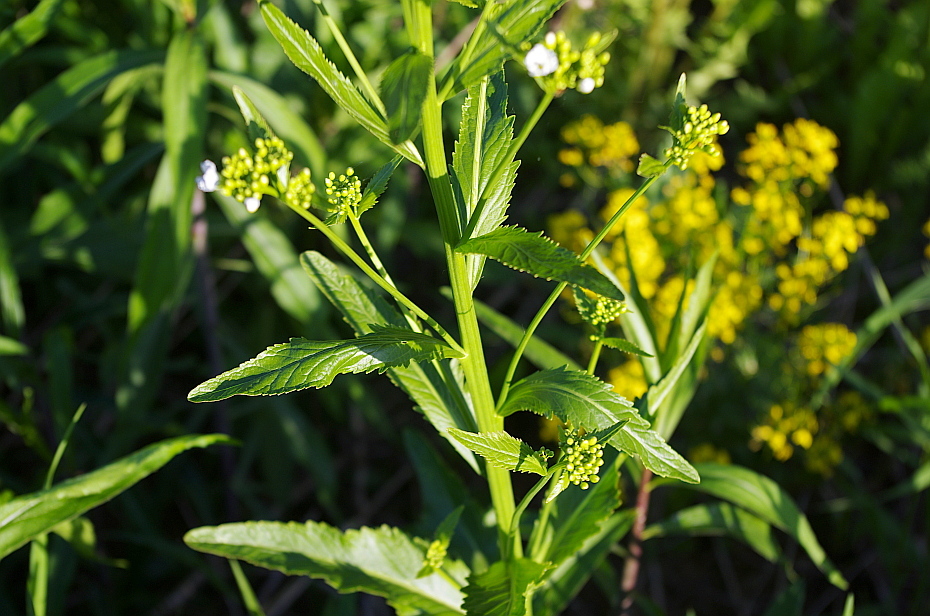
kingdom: Plantae
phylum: Tracheophyta
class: Magnoliopsida
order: Brassicales
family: Brassicaceae
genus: Armoracia
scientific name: Armoracia rusticana
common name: Horseradish
